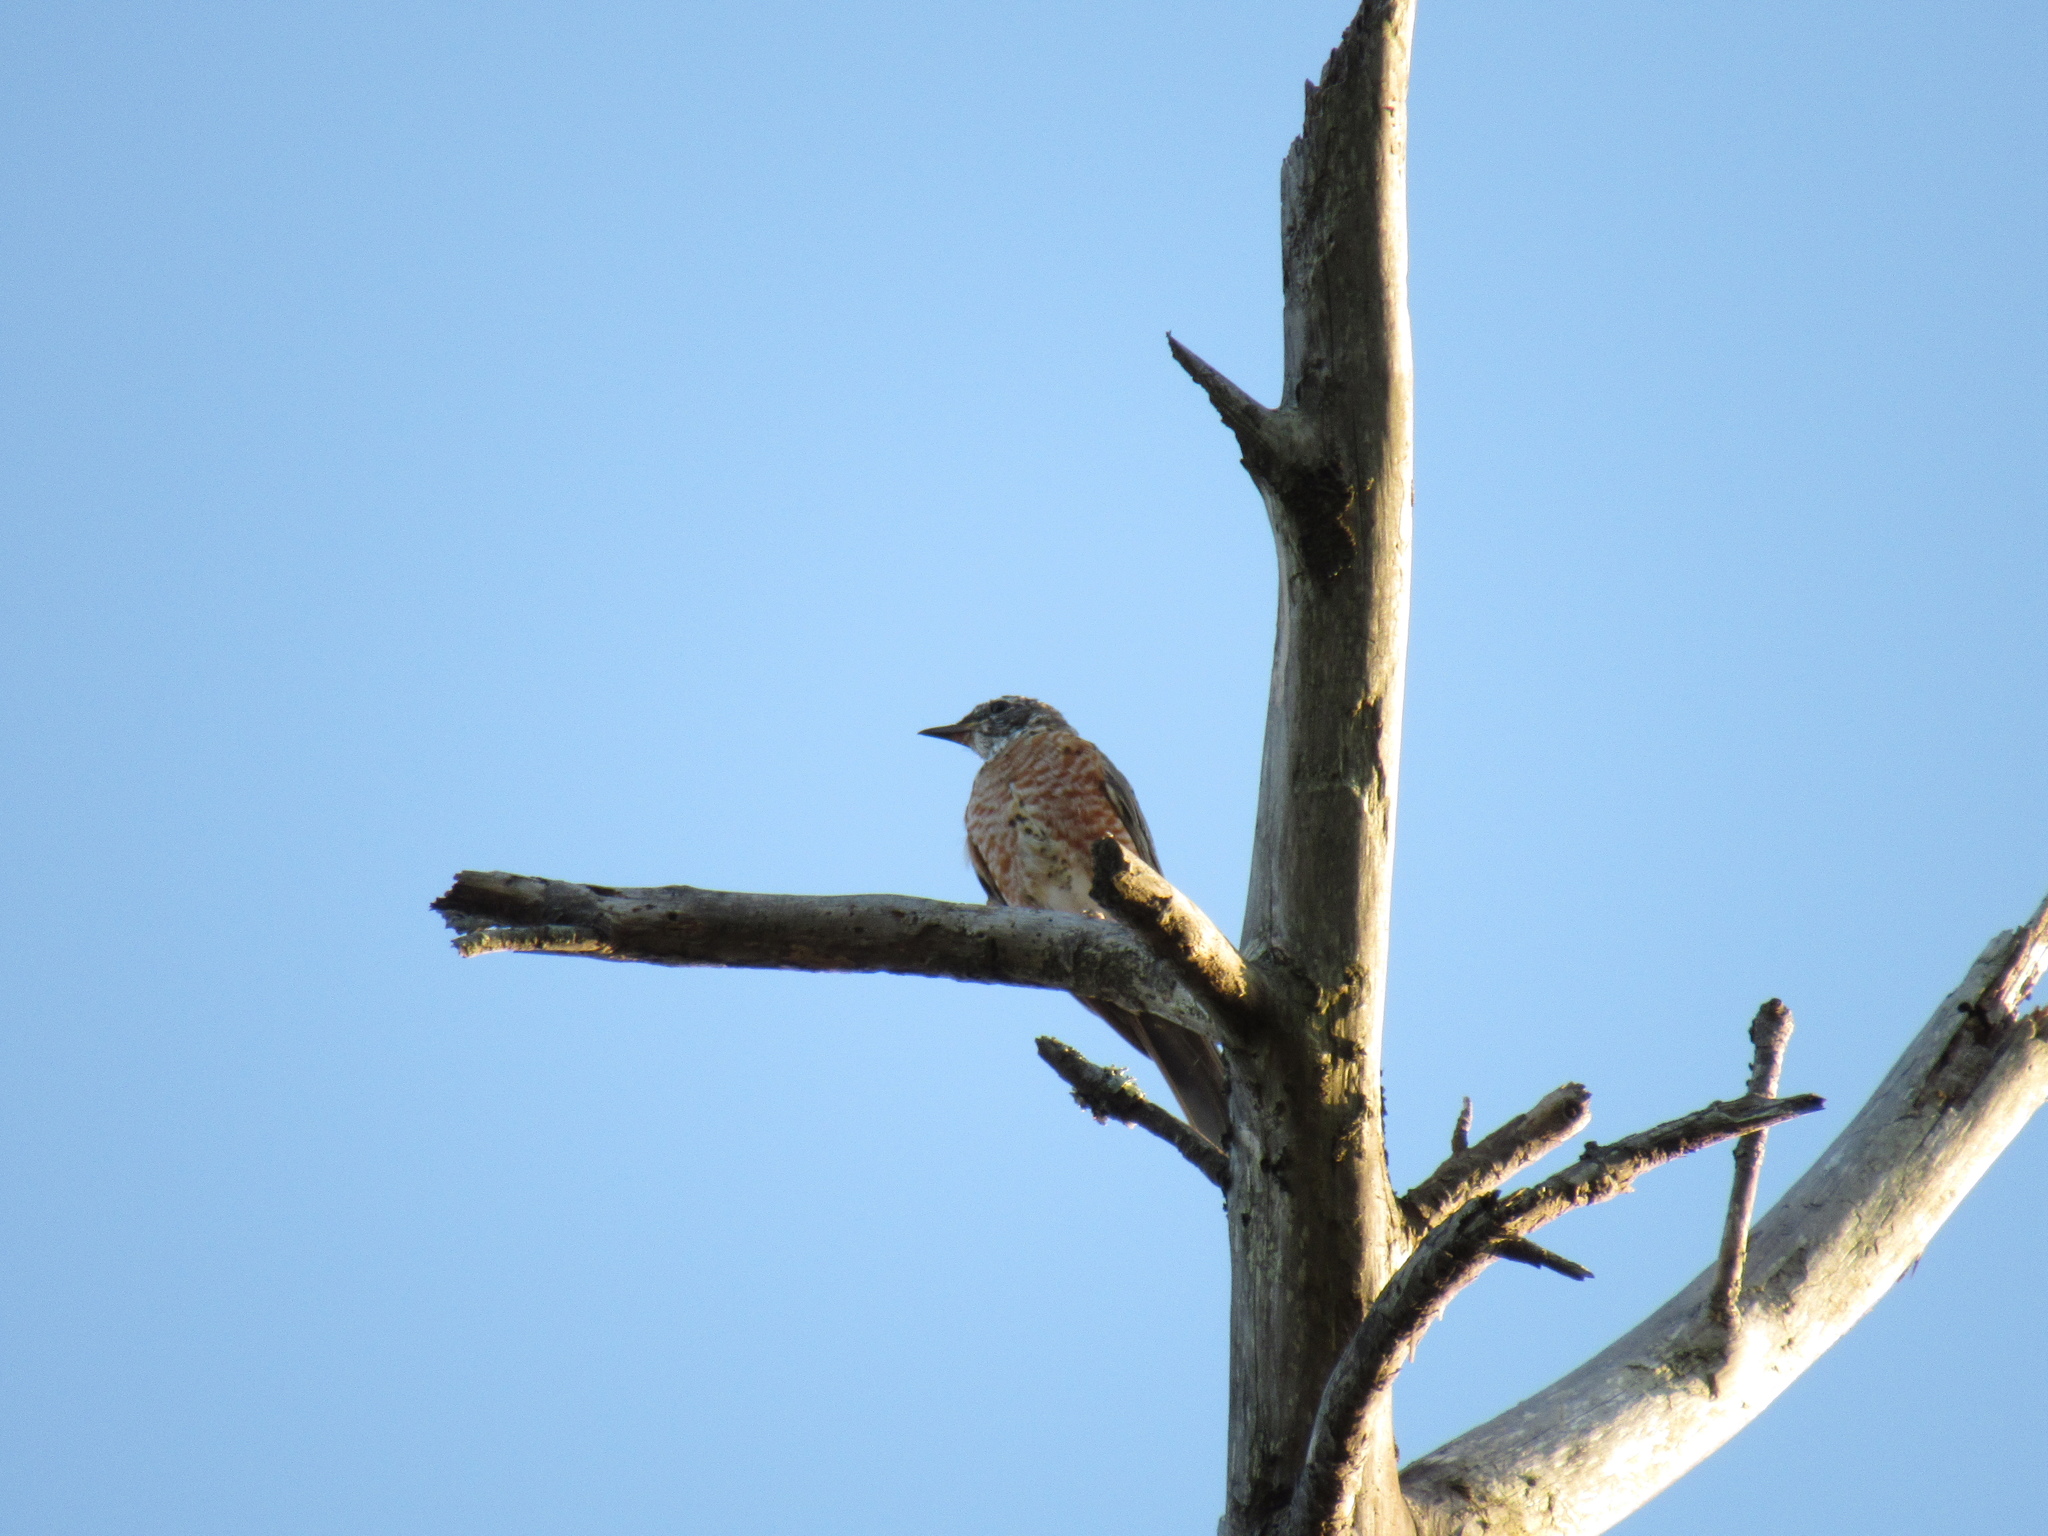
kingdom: Animalia
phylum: Chordata
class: Aves
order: Passeriformes
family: Turdidae
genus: Turdus
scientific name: Turdus migratorius
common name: American robin
